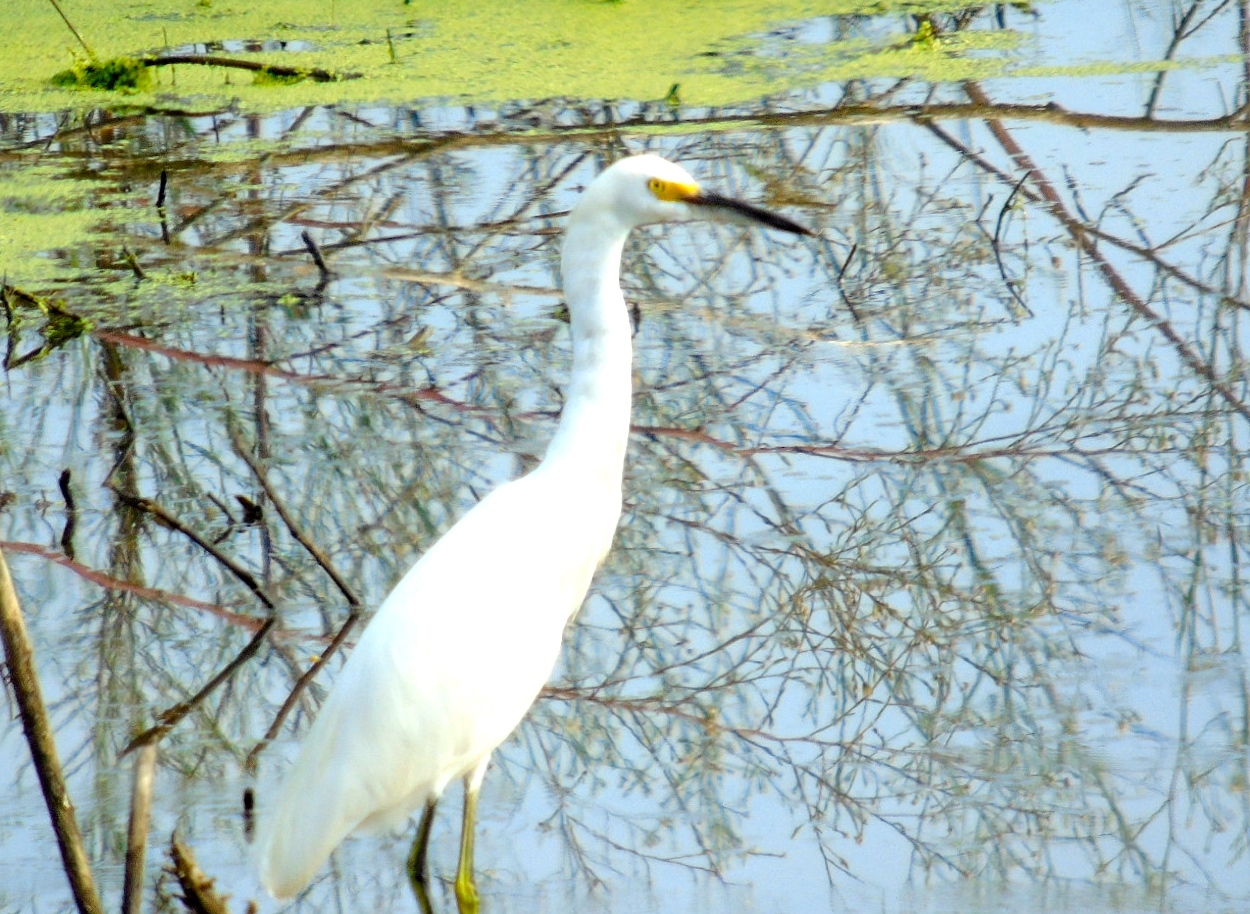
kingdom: Animalia
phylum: Chordata
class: Aves
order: Pelecaniformes
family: Ardeidae
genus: Egretta
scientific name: Egretta thula
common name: Snowy egret
